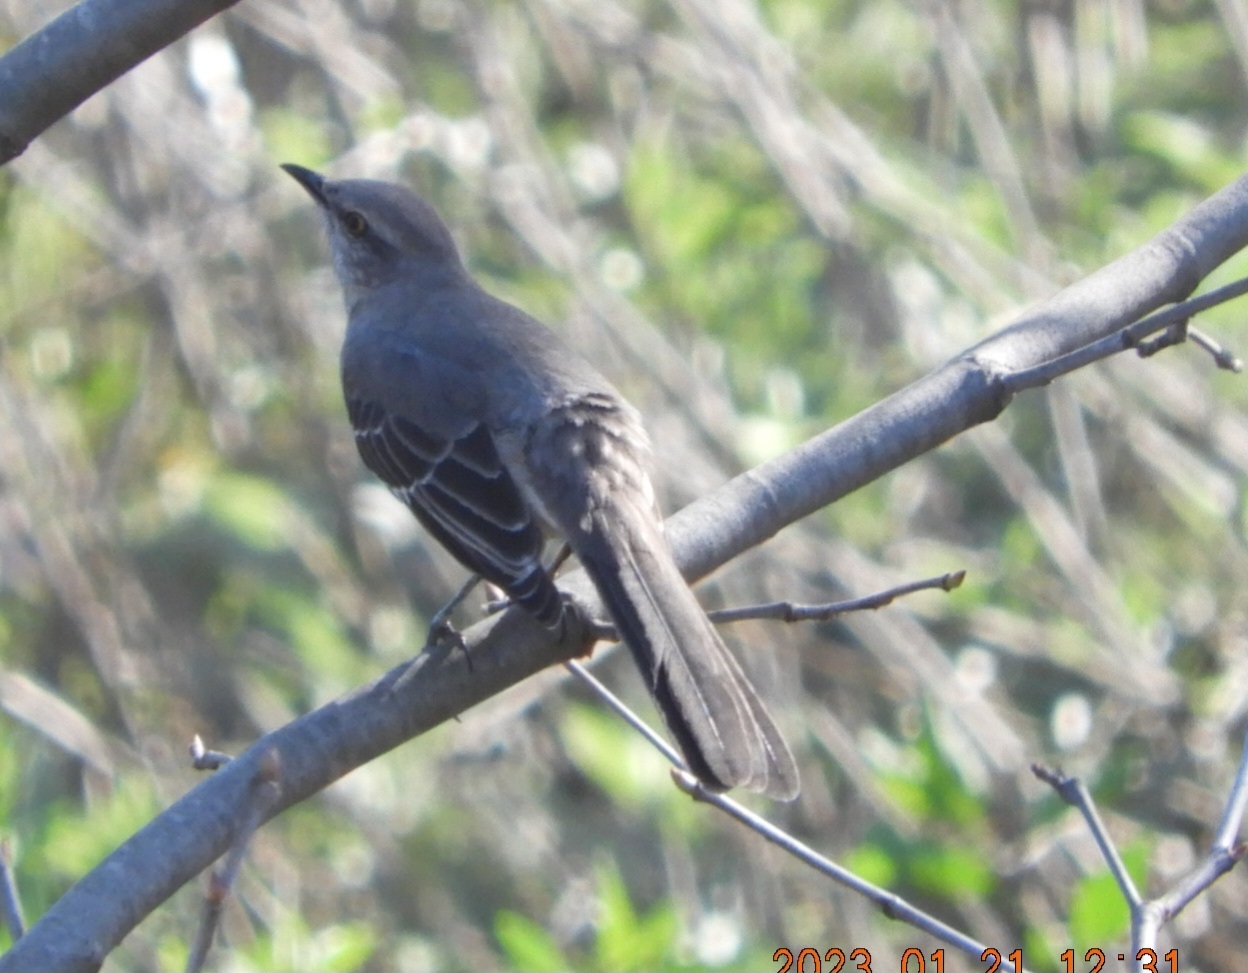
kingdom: Animalia
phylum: Chordata
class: Aves
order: Passeriformes
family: Mimidae
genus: Mimus
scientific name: Mimus polyglottos
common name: Northern mockingbird
